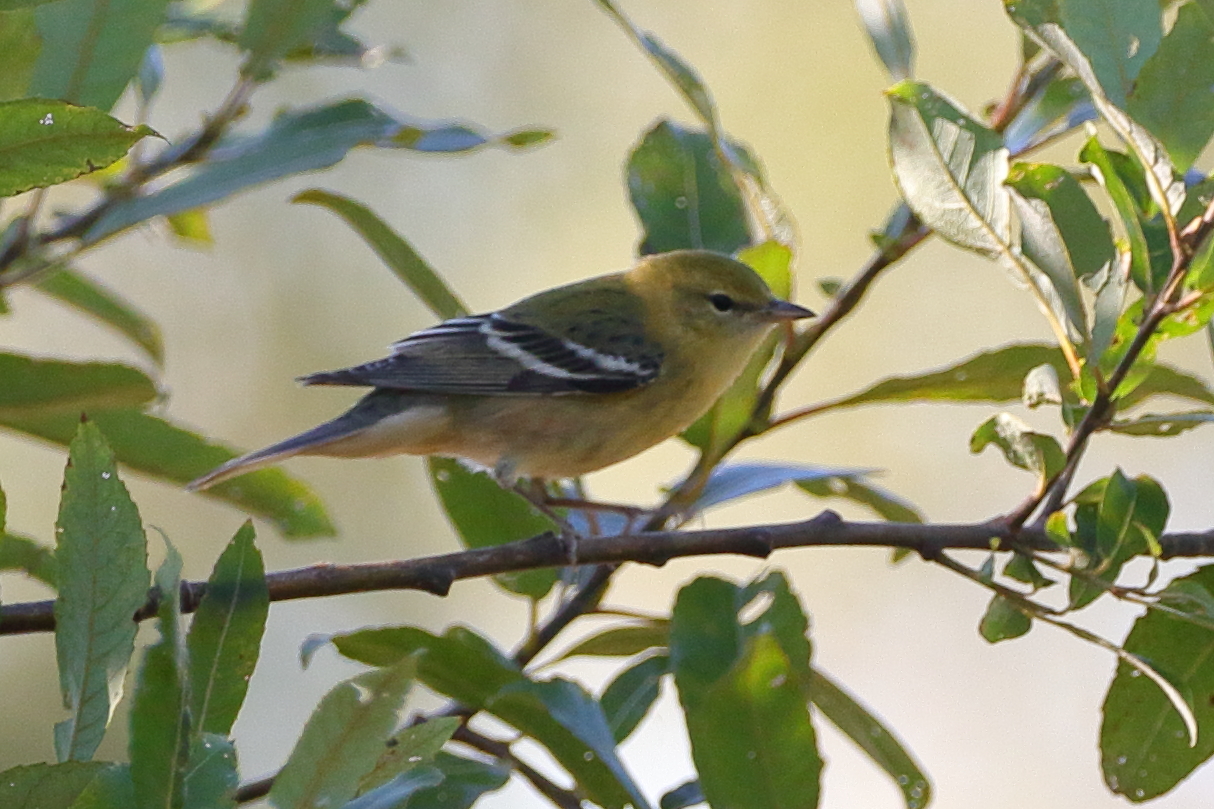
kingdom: Animalia
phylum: Chordata
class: Aves
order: Passeriformes
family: Parulidae
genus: Setophaga
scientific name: Setophaga castanea
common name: Bay-breasted warbler
